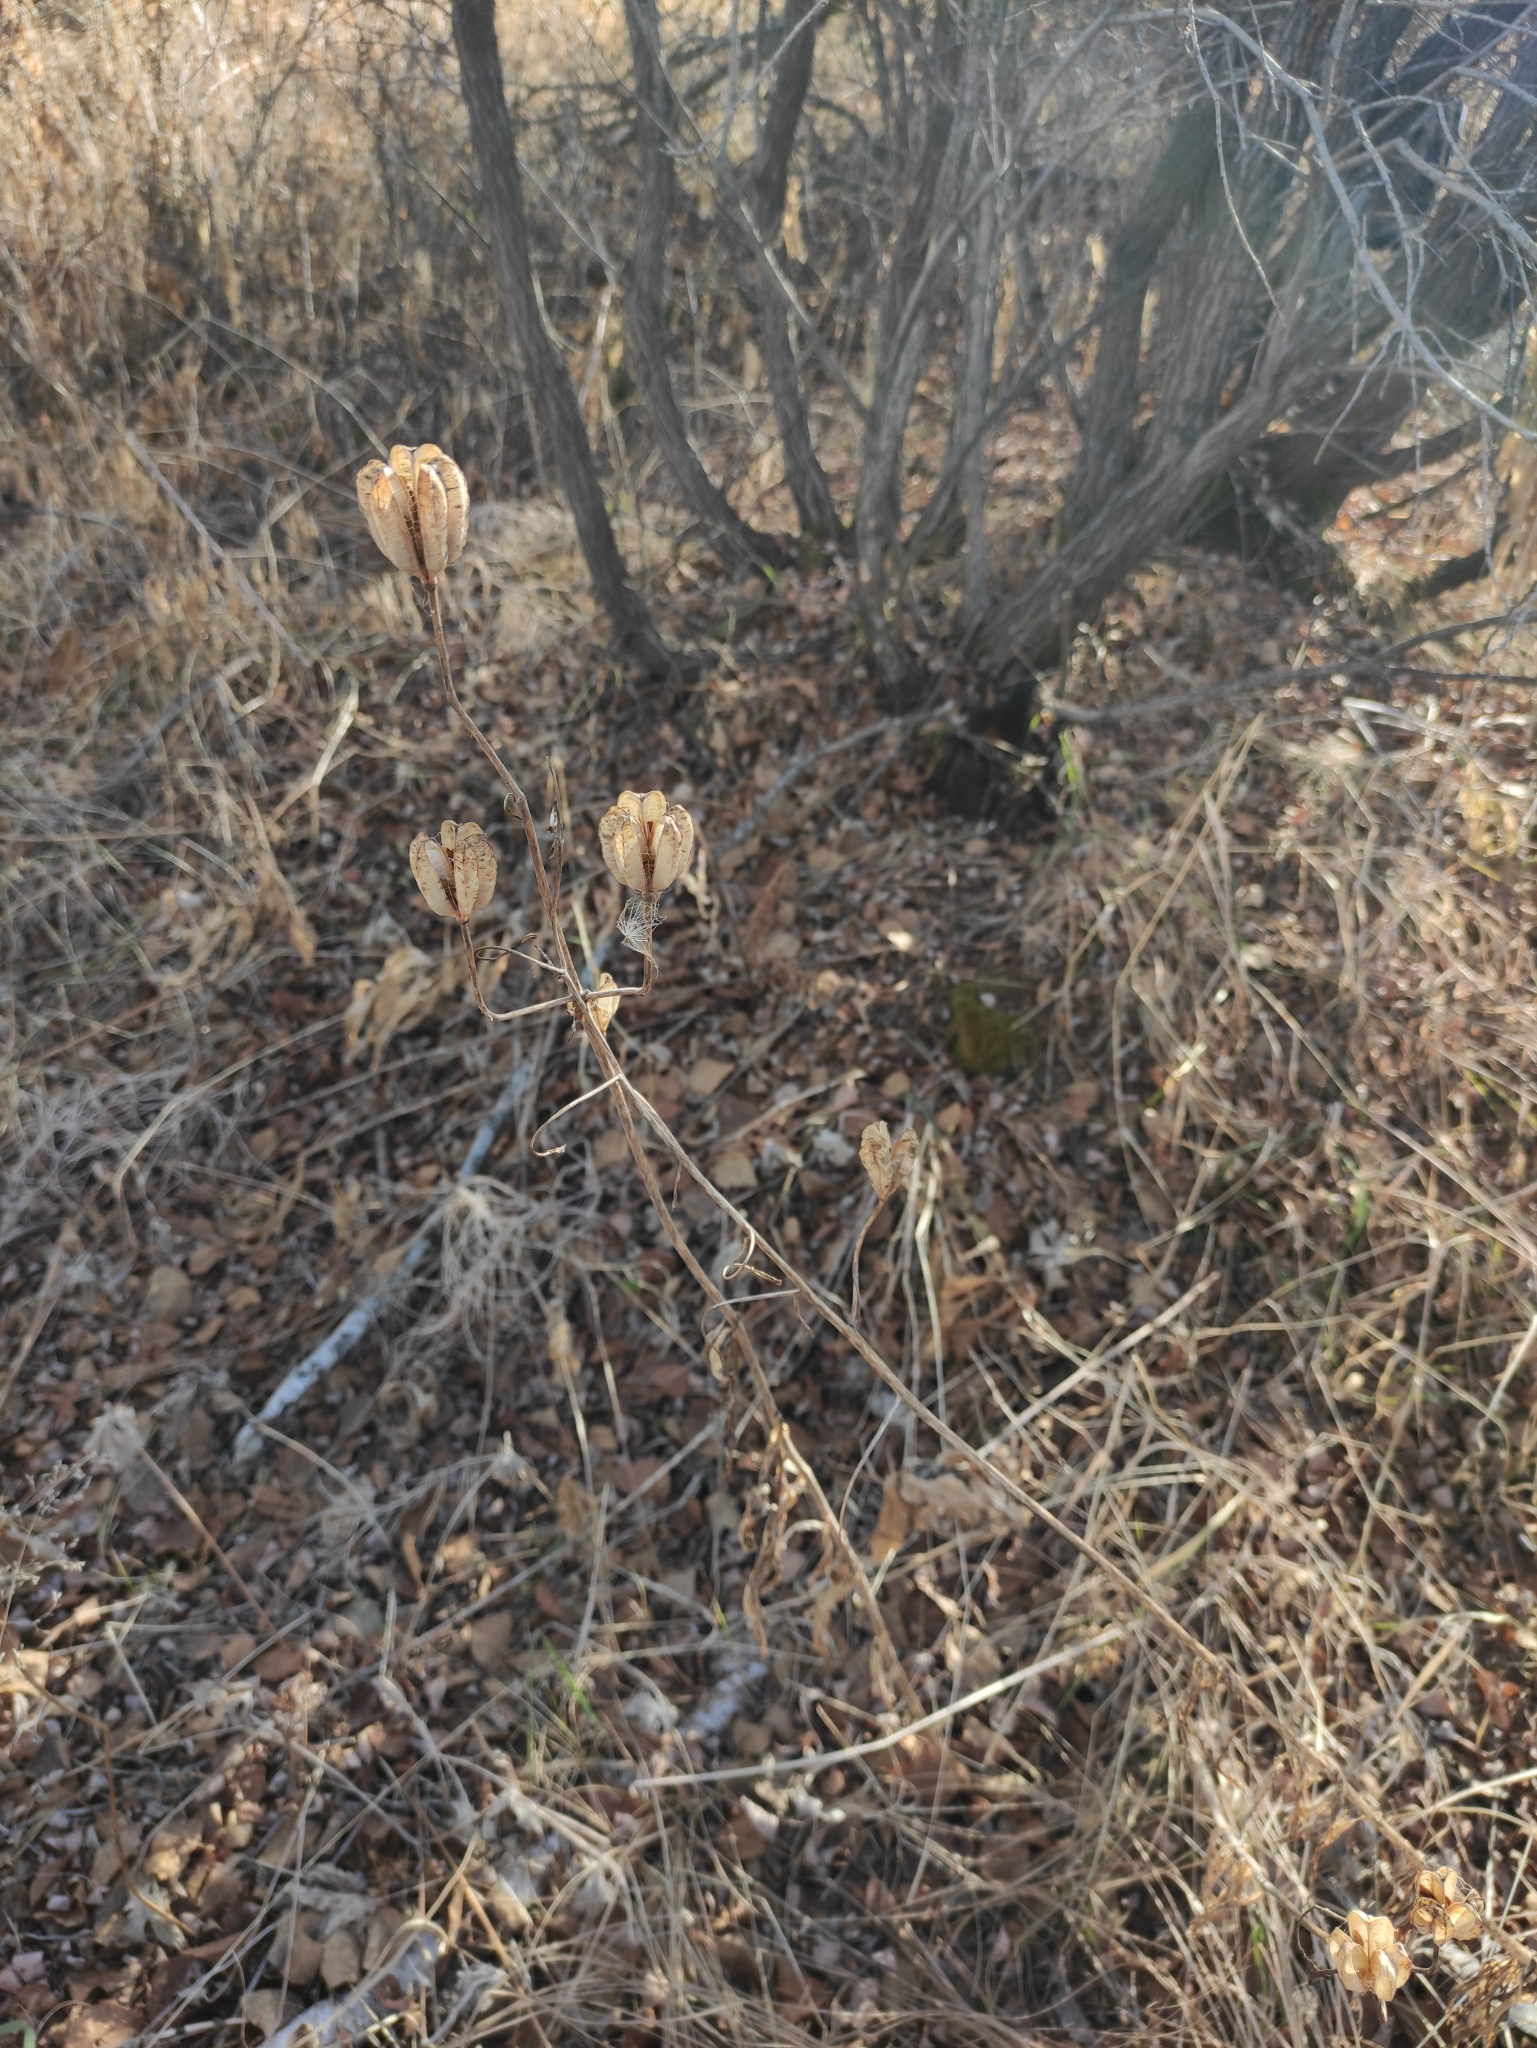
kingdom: Plantae
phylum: Tracheophyta
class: Liliopsida
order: Liliales
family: Liliaceae
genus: Lilium
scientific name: Lilium martagon
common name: Martagon lily
